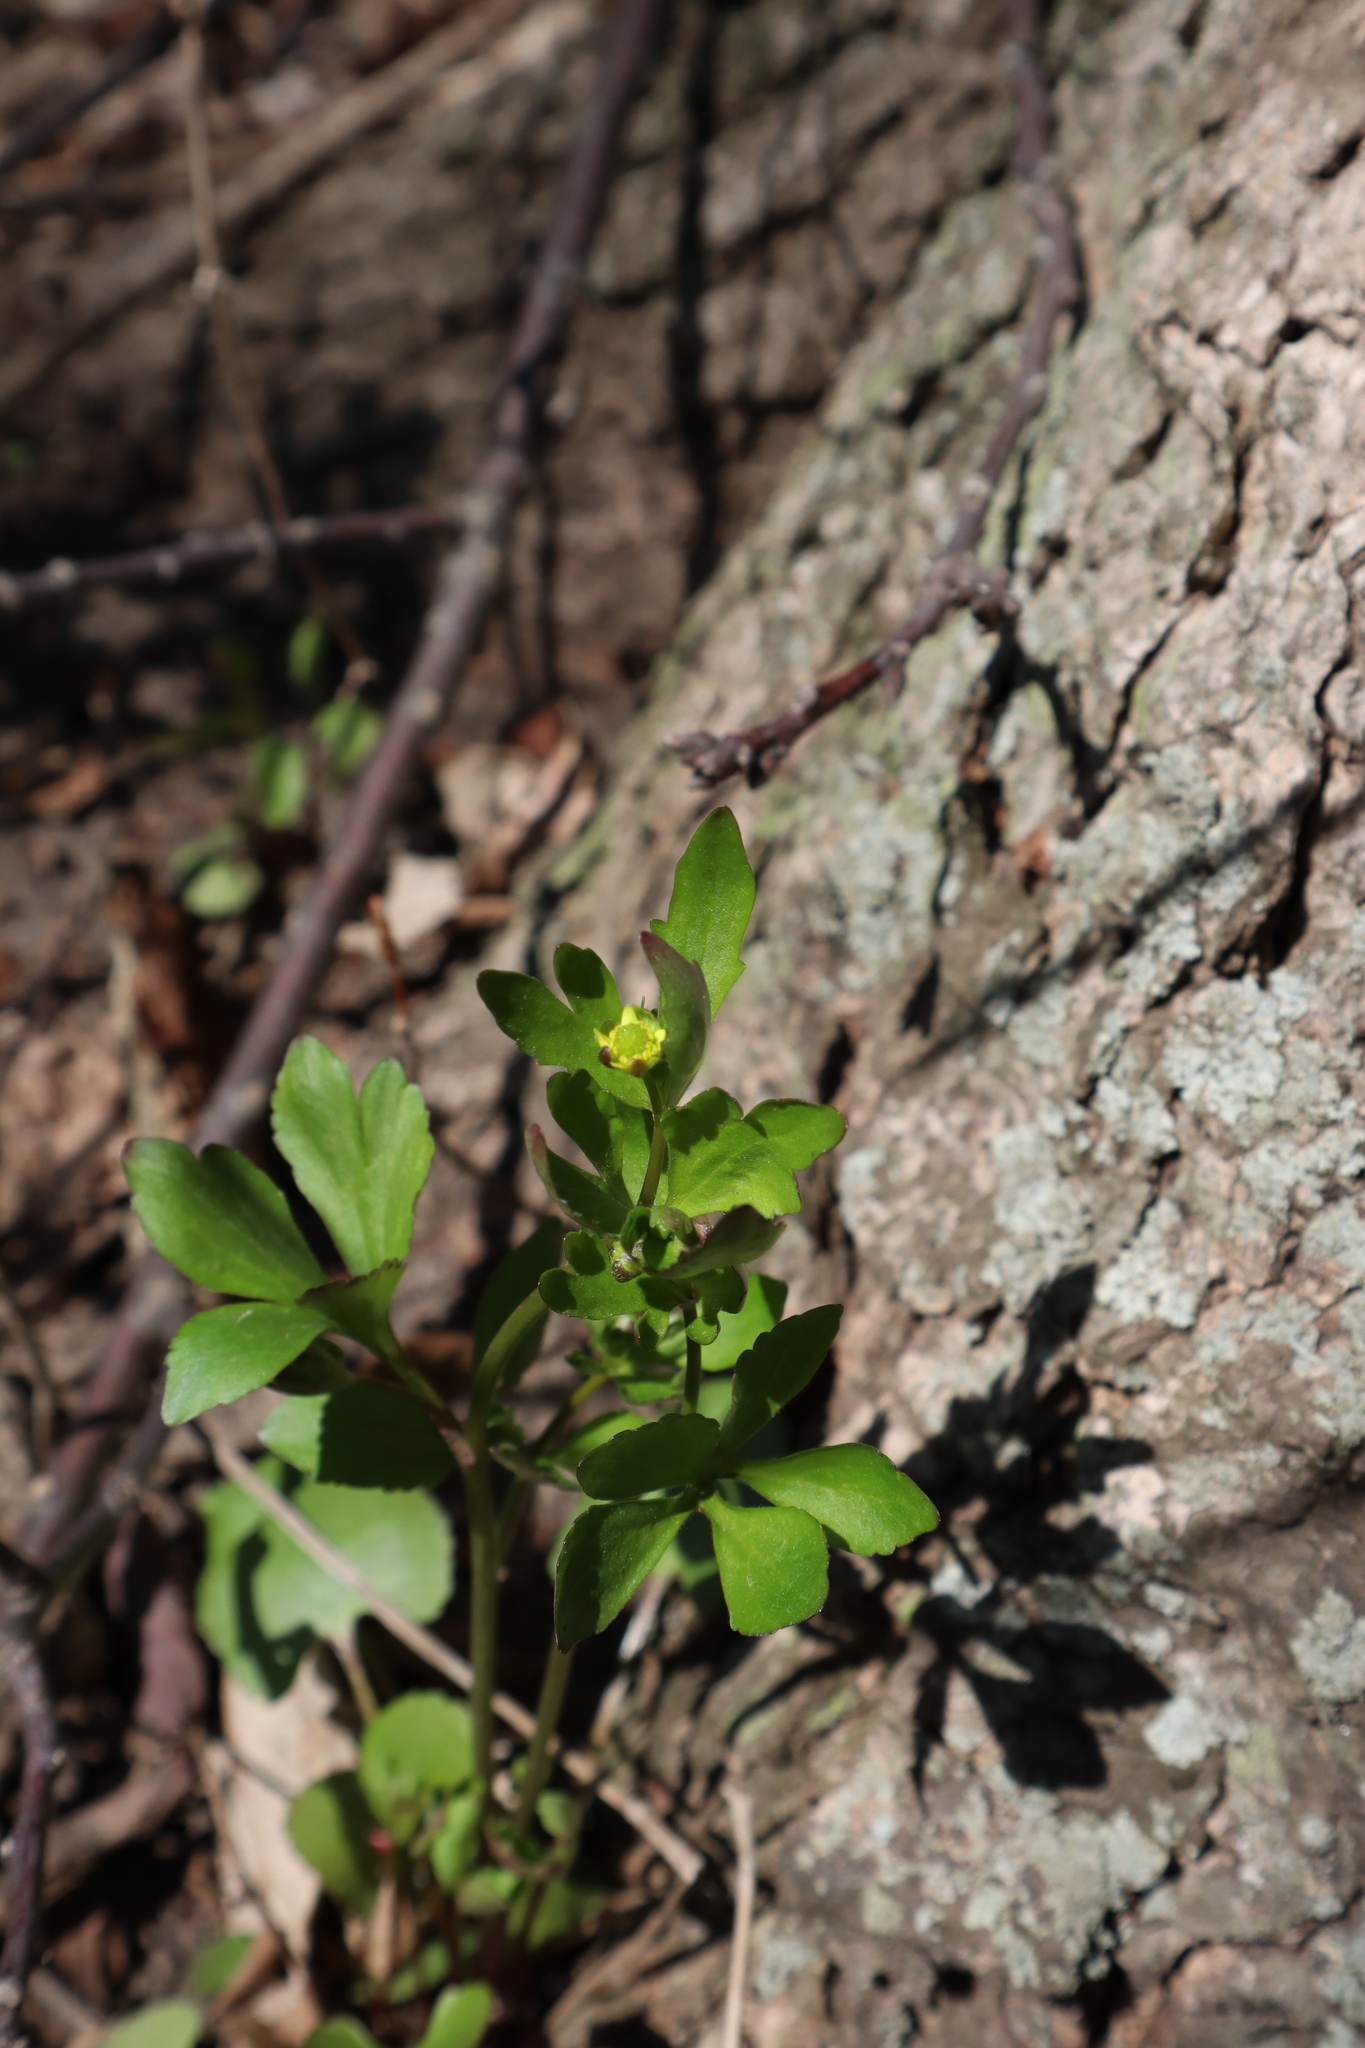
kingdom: Plantae
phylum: Tracheophyta
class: Magnoliopsida
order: Ranunculales
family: Ranunculaceae
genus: Ranunculus
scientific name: Ranunculus recurvatus
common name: Blisterwort
